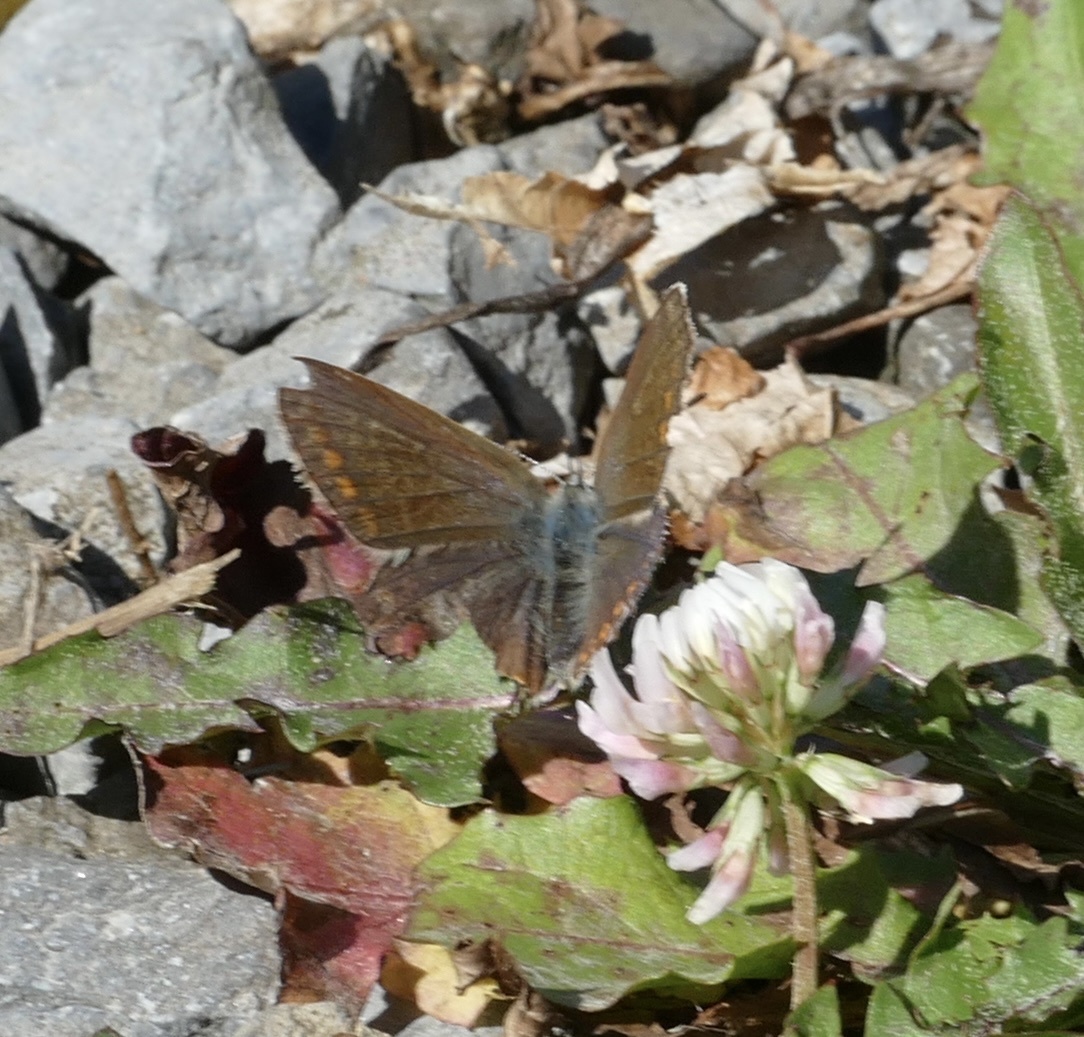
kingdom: Animalia
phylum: Arthropoda
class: Insecta
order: Lepidoptera
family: Lycaenidae
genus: Polyommatus
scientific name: Polyommatus icarus
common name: Common blue
